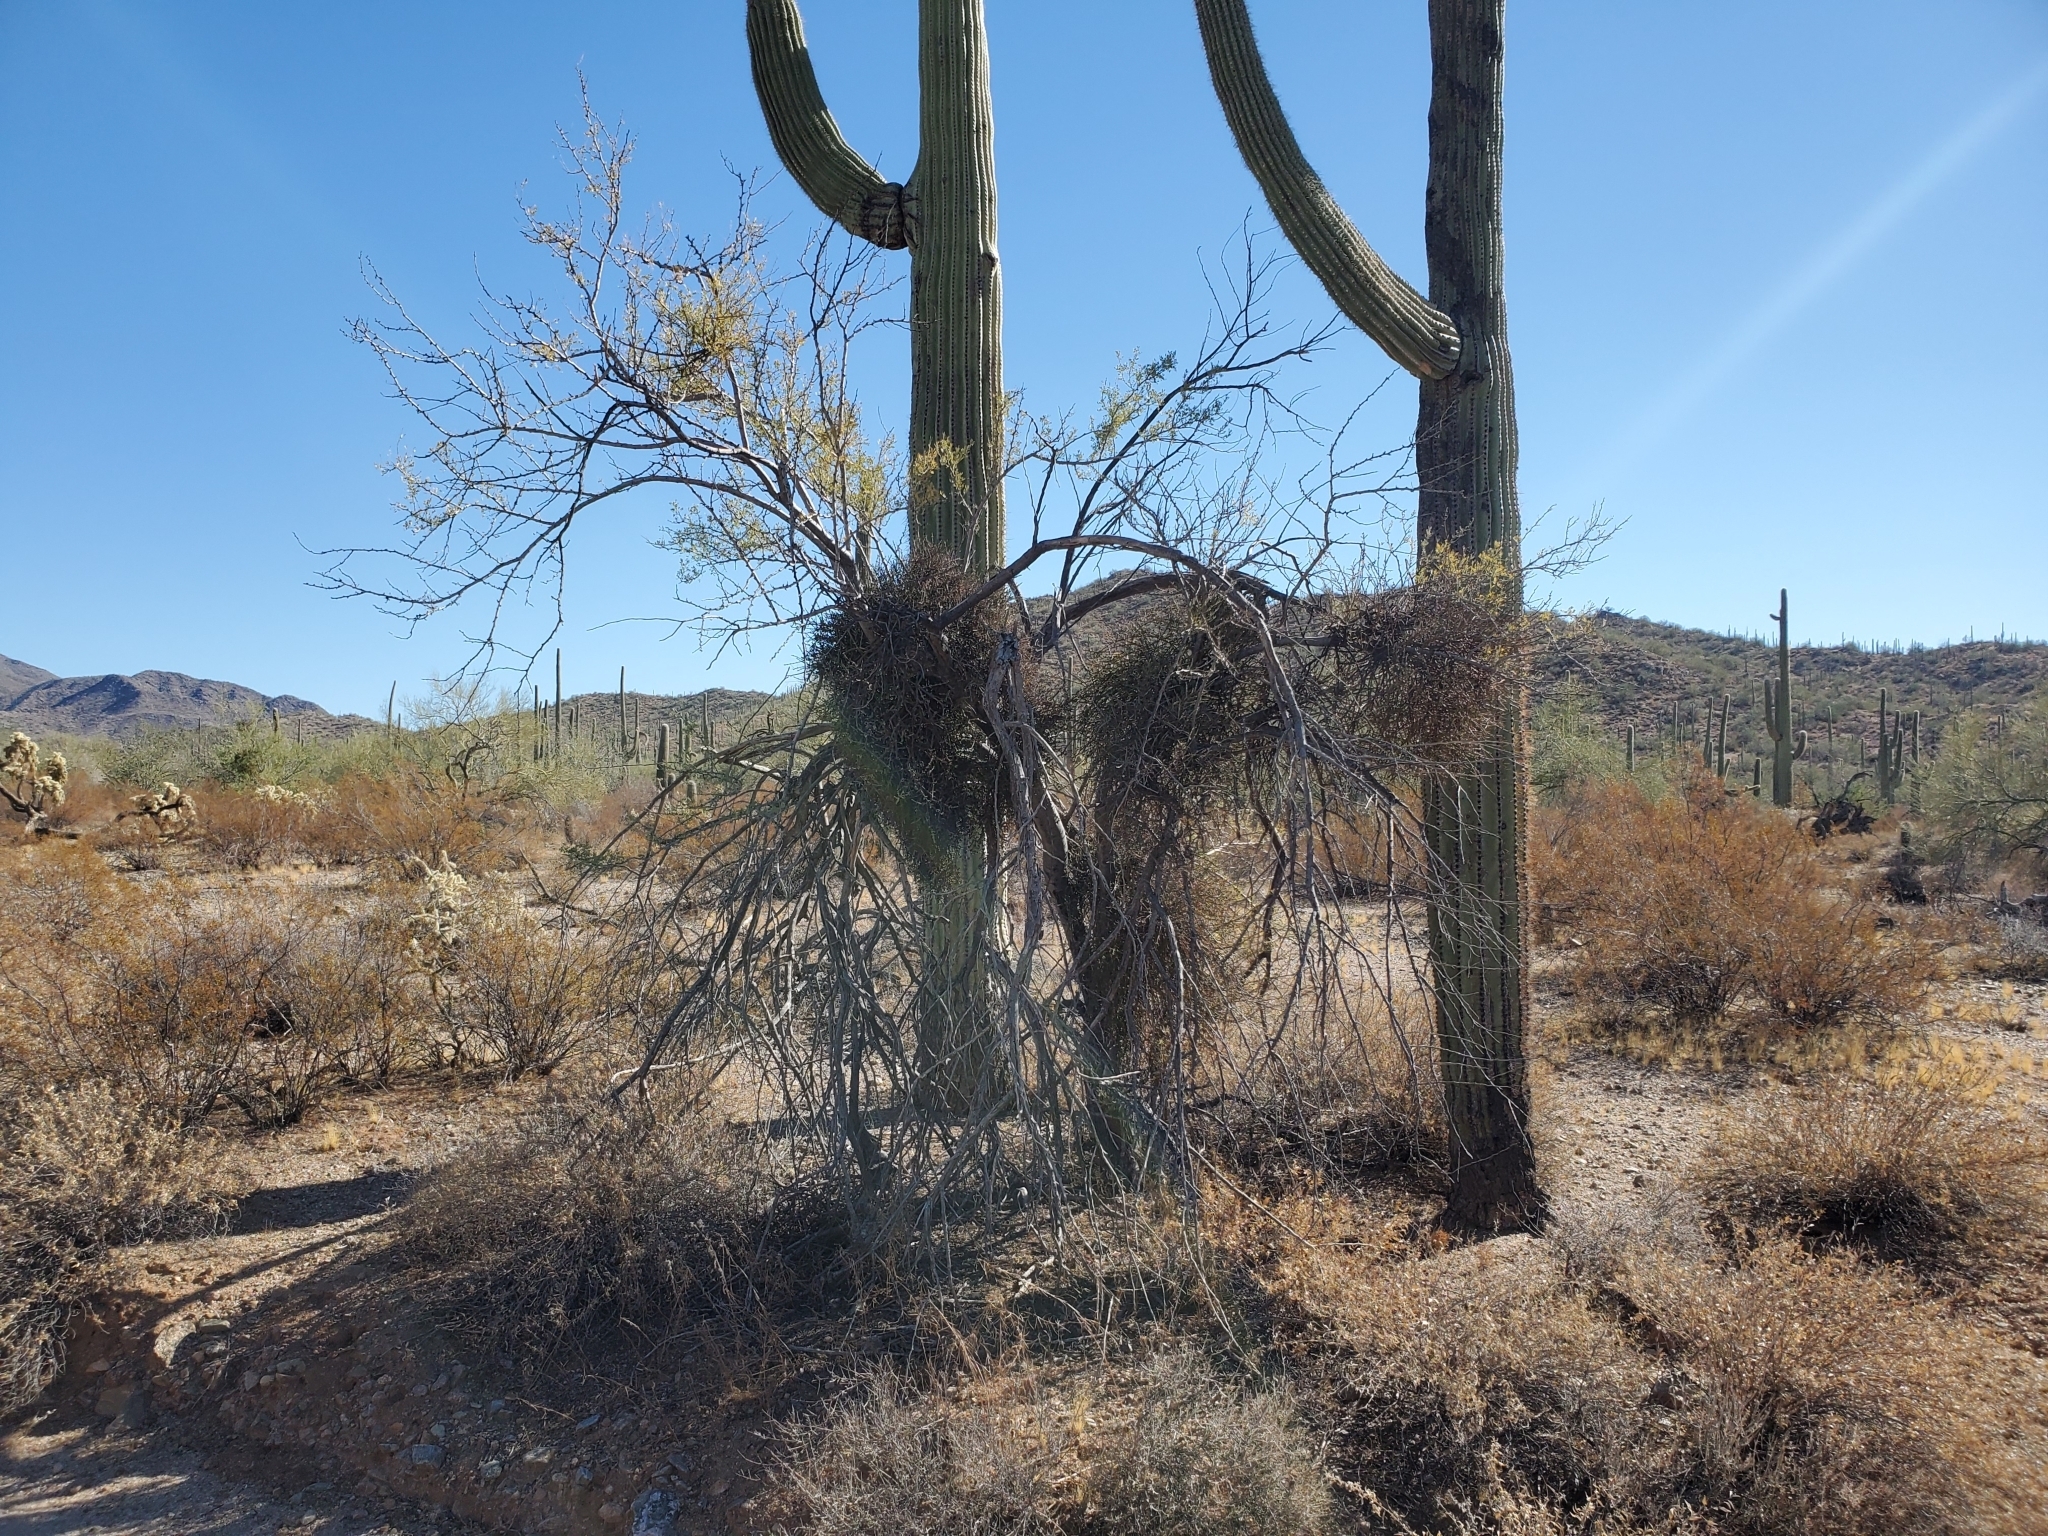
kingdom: Plantae
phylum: Tracheophyta
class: Magnoliopsida
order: Santalales
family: Viscaceae
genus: Phoradendron
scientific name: Phoradendron californicum
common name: Acacia mistletoe
